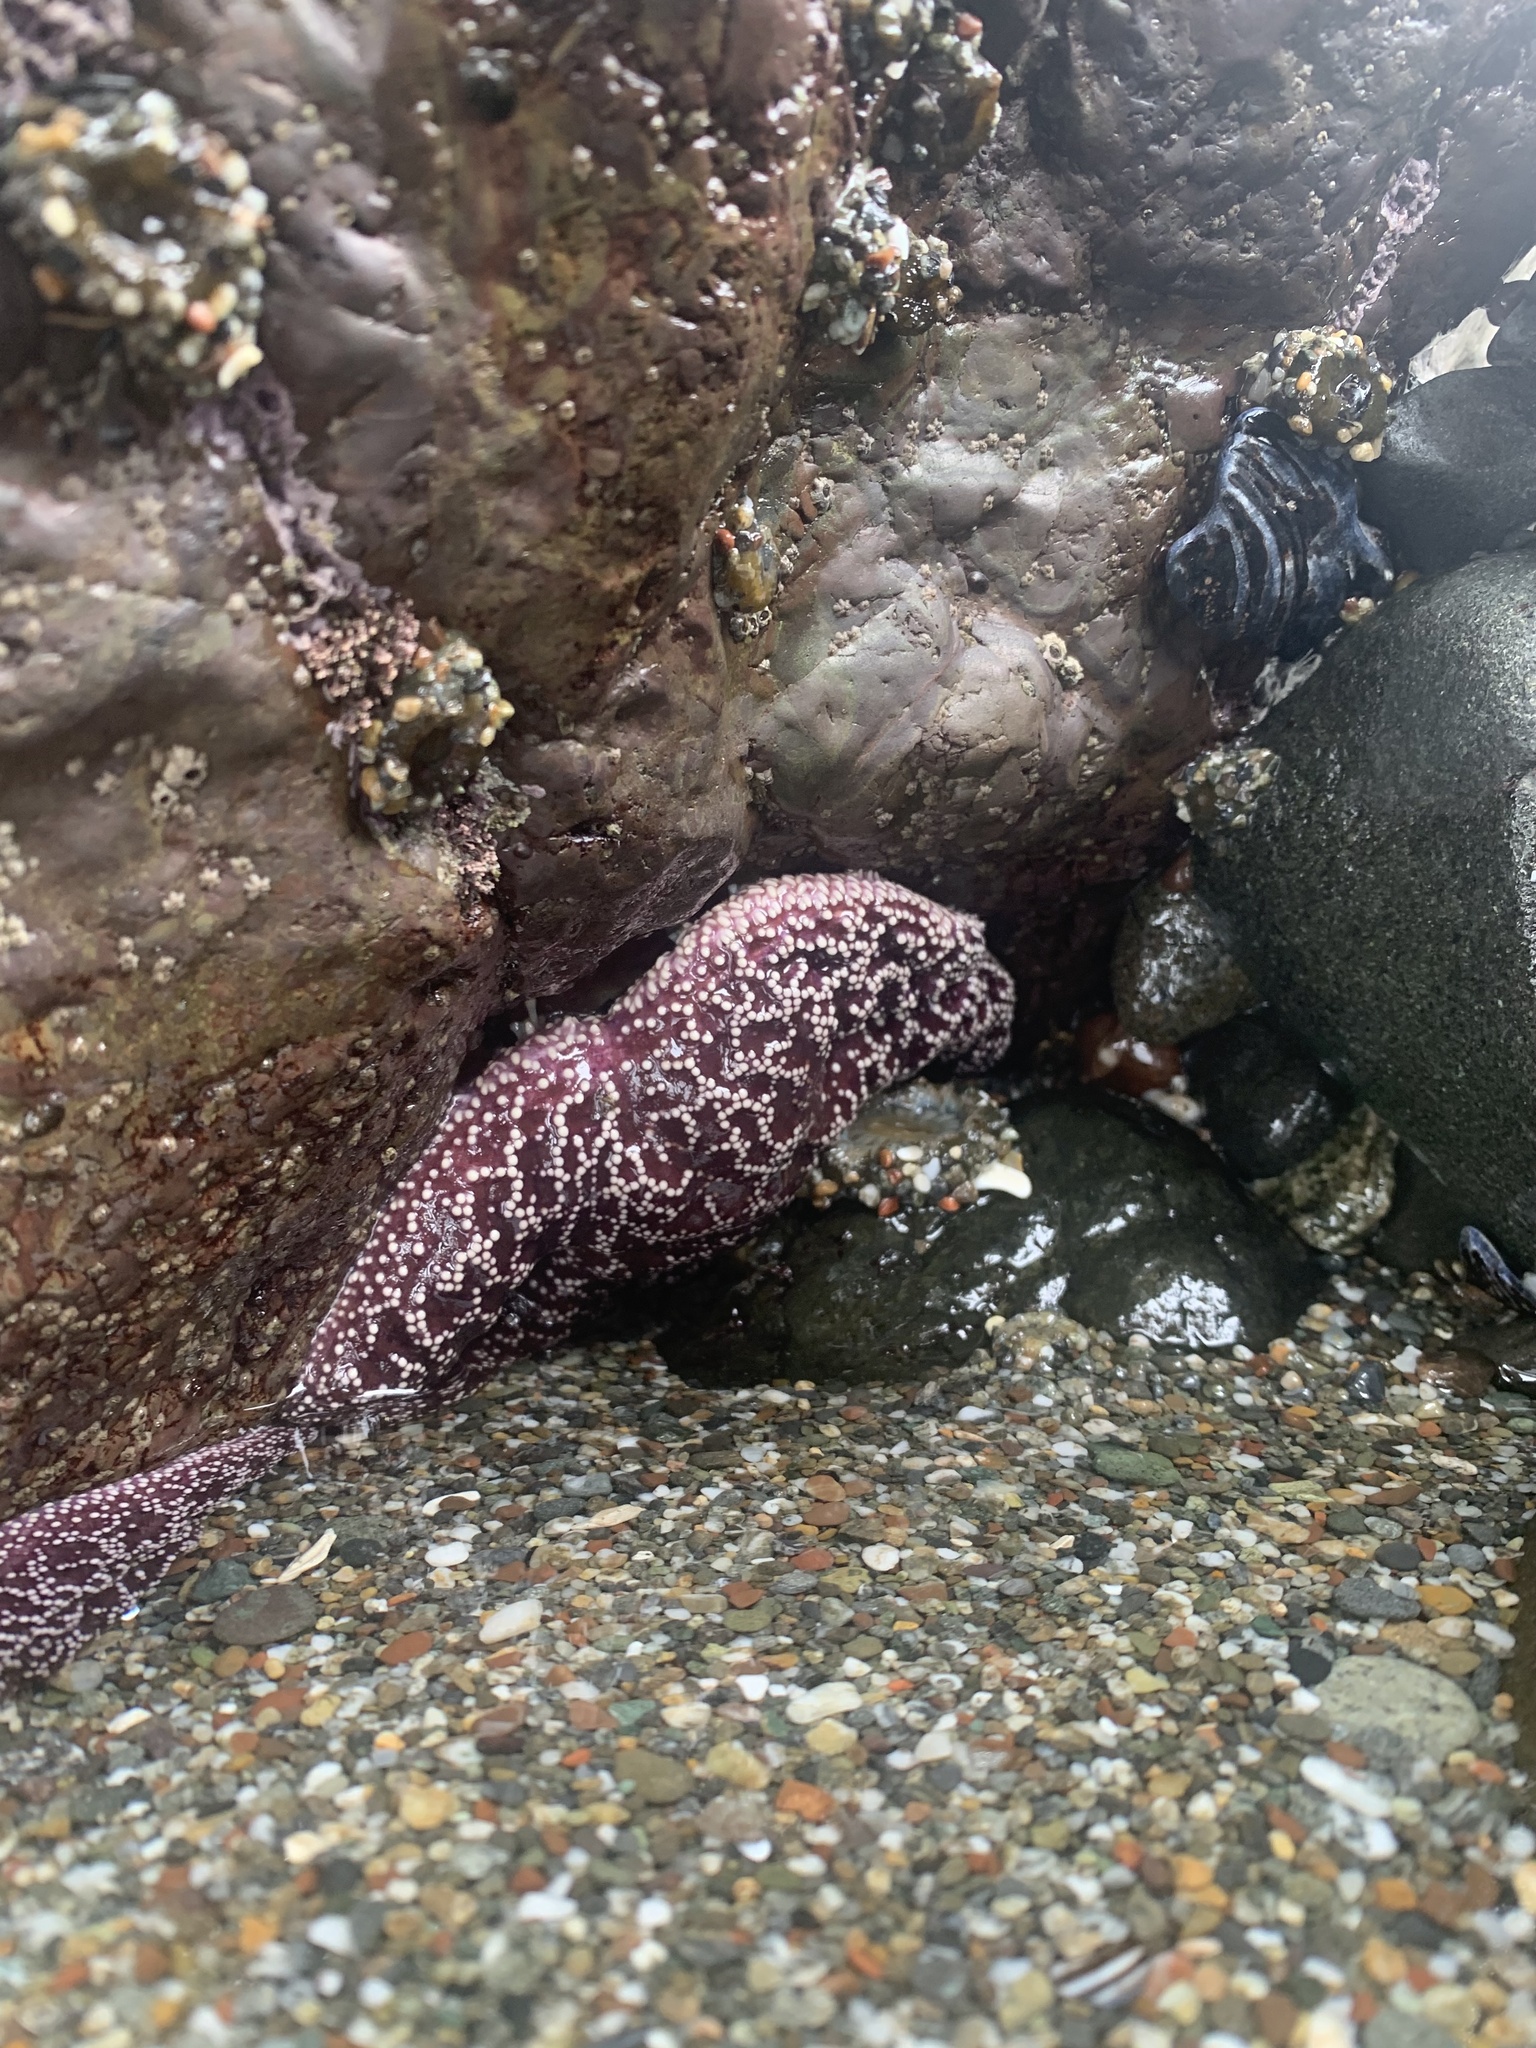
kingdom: Animalia
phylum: Echinodermata
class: Asteroidea
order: Forcipulatida
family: Asteriidae
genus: Pisaster
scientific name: Pisaster ochraceus
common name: Ochre stars
